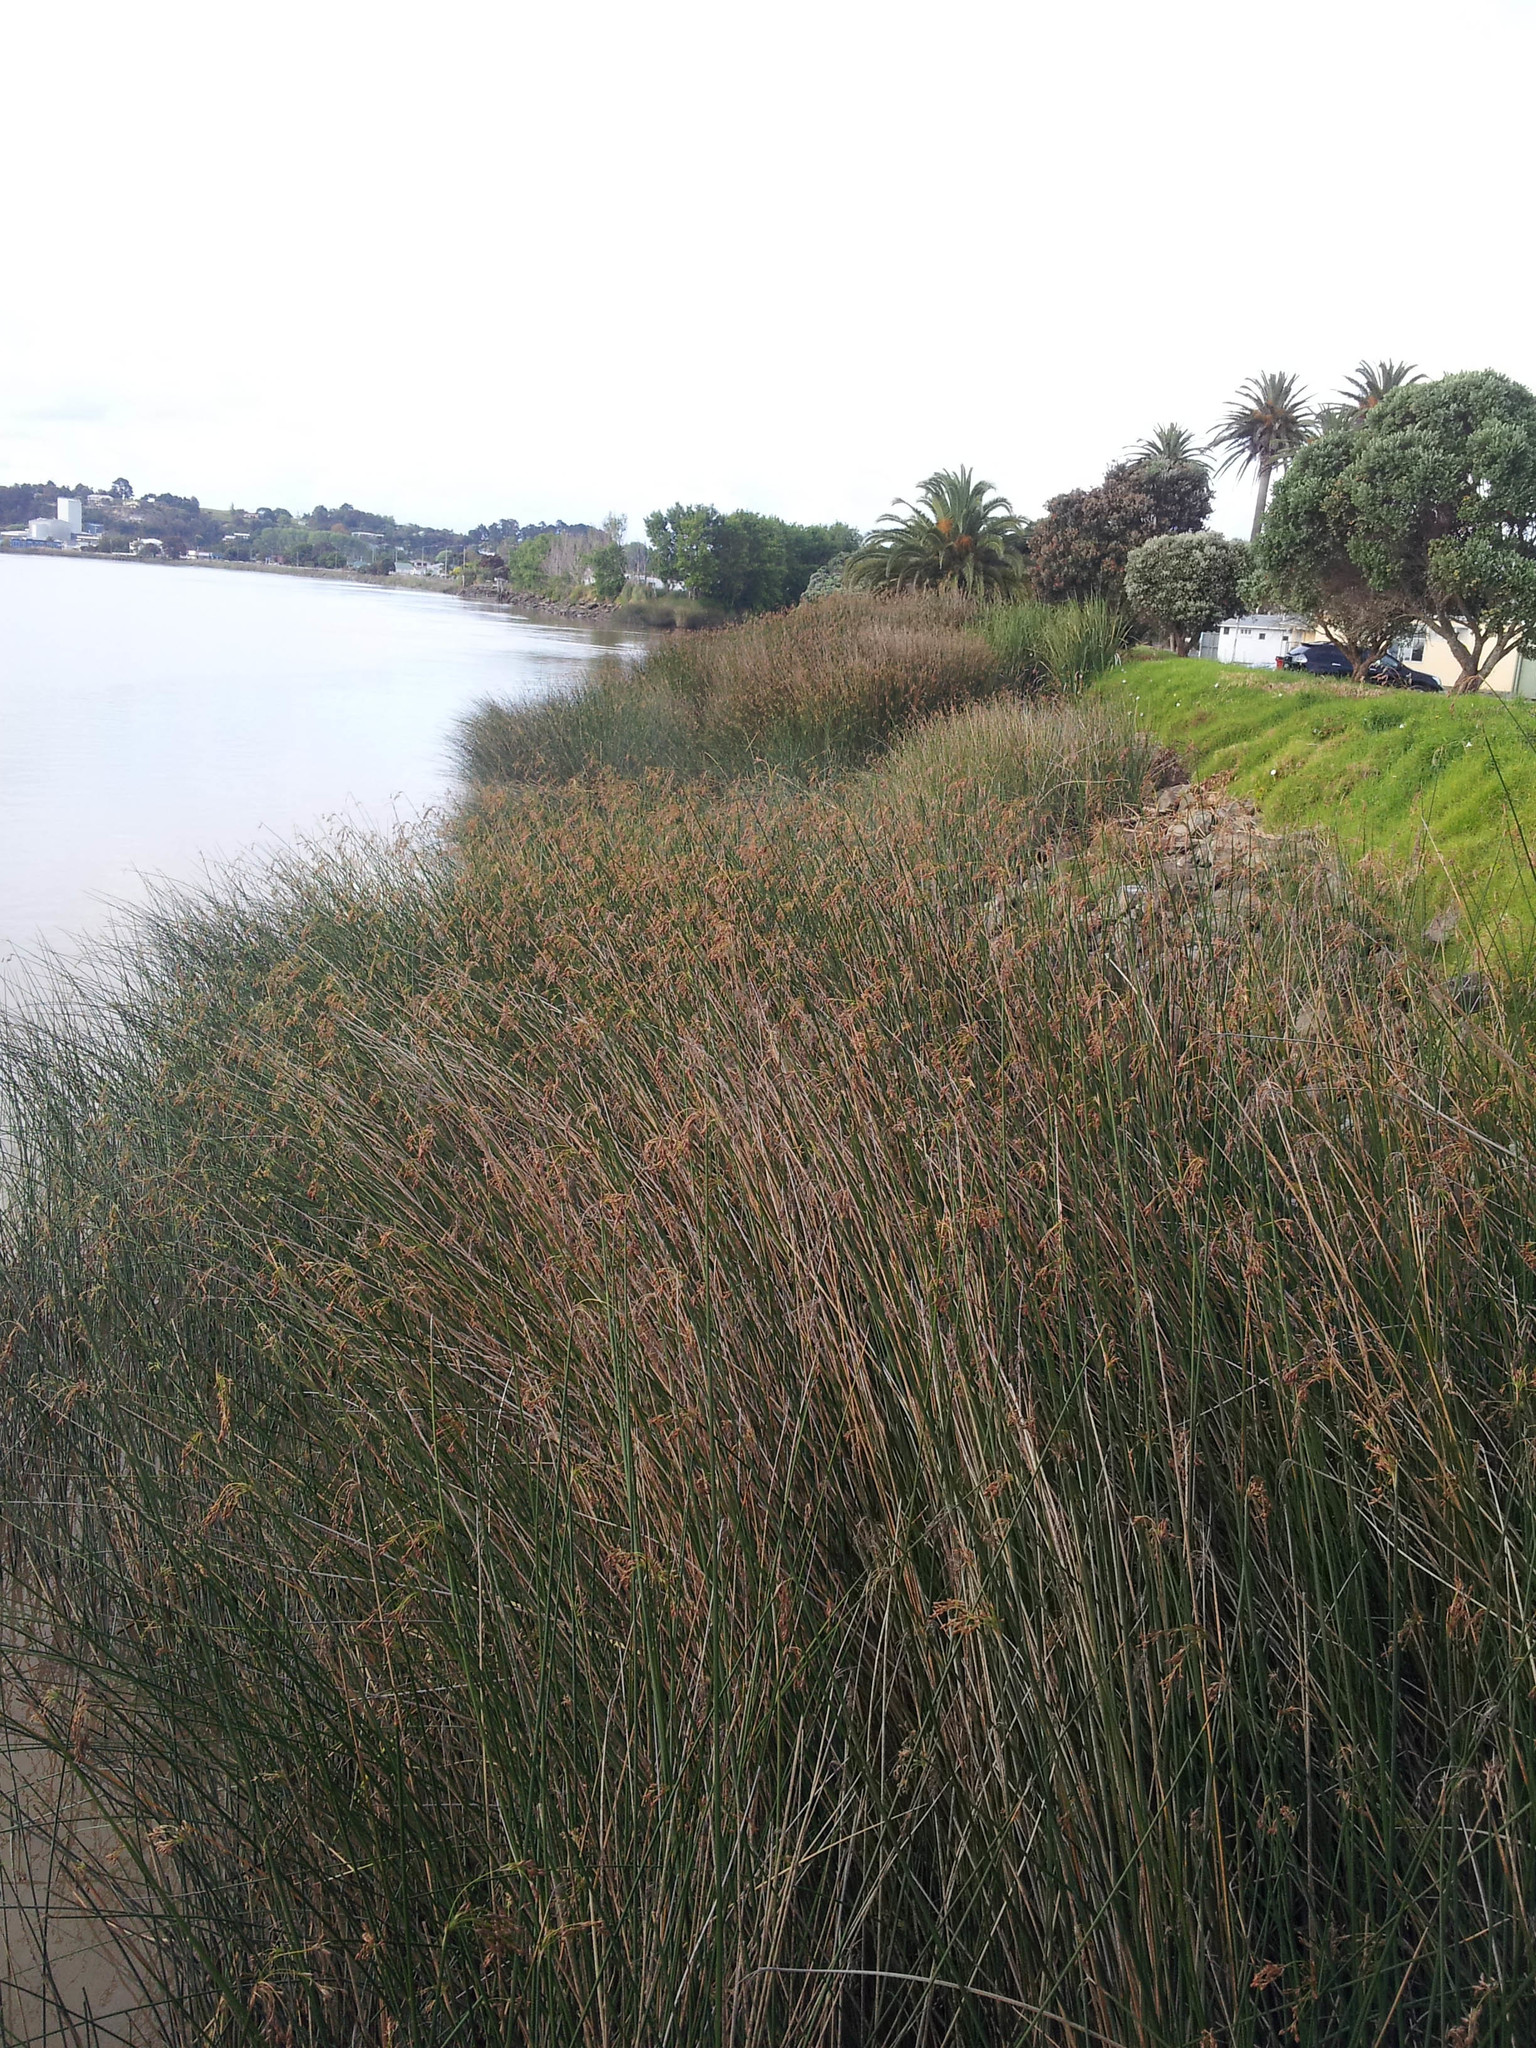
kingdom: Plantae
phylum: Tracheophyta
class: Liliopsida
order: Poales
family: Cyperaceae
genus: Schoenoplectus
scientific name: Schoenoplectus californicus
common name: California bulrush
